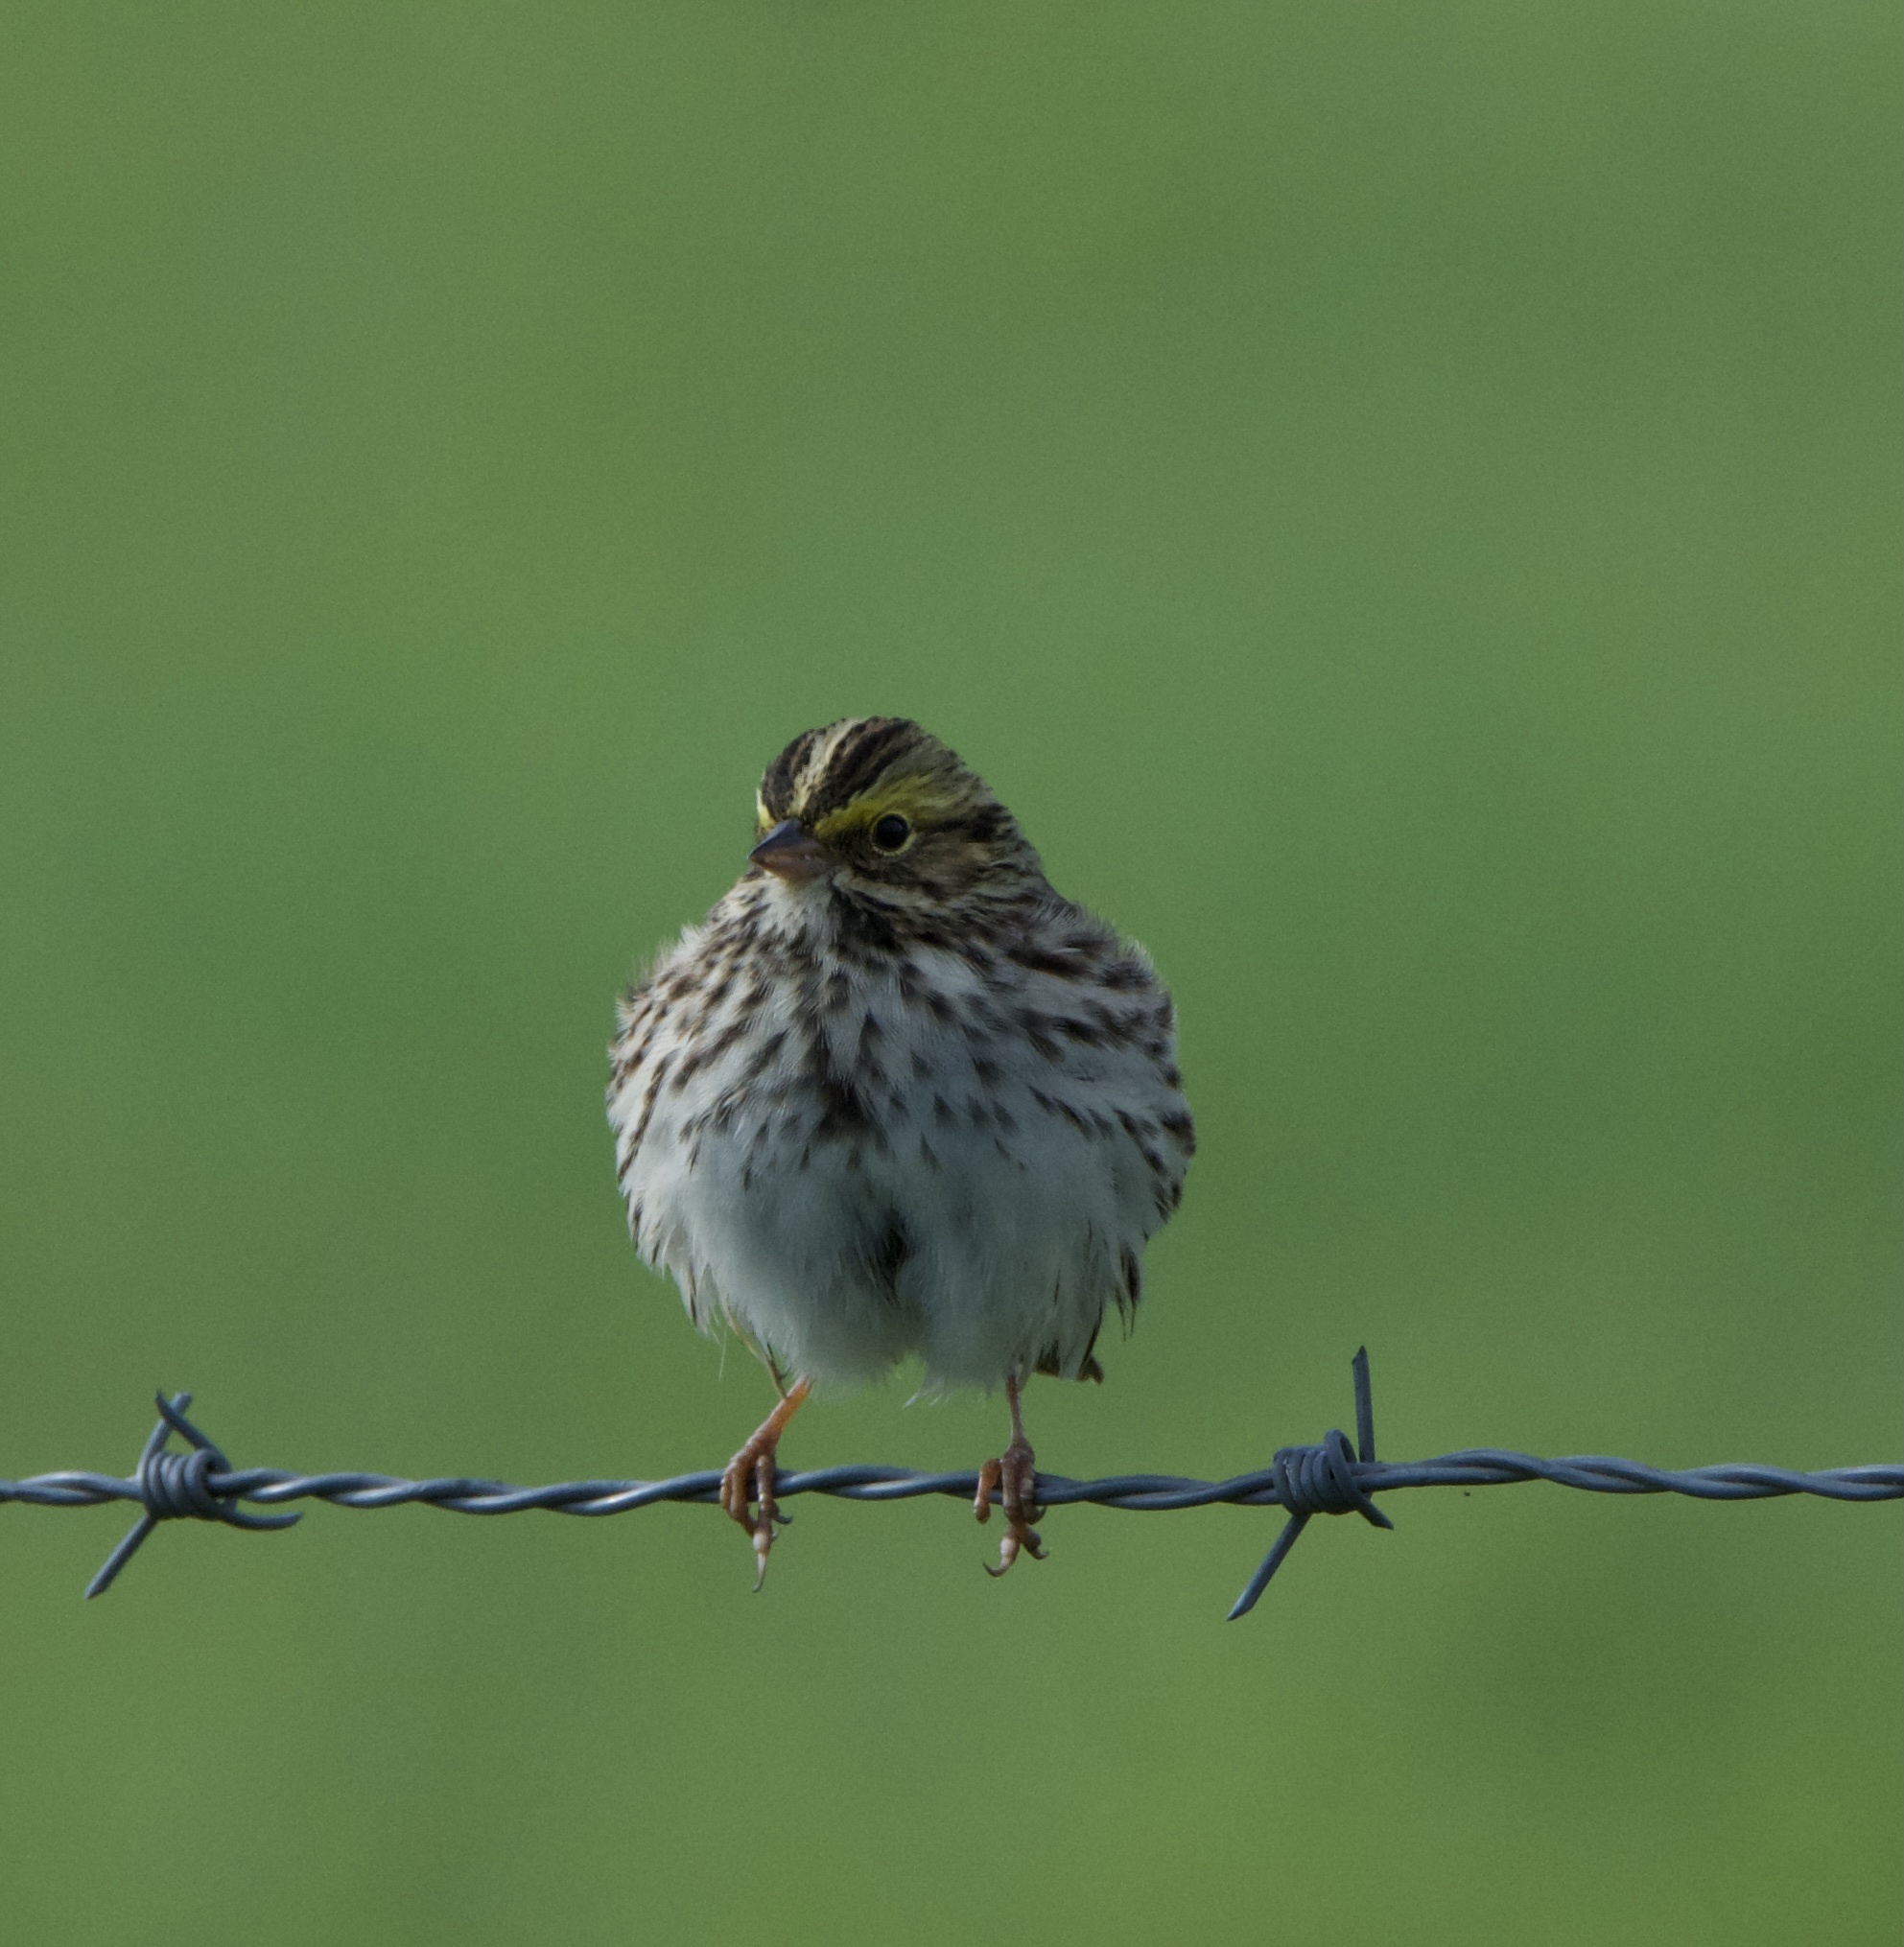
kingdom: Animalia
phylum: Chordata
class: Aves
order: Passeriformes
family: Passerellidae
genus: Passerculus
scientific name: Passerculus sandwichensis
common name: Savannah sparrow
